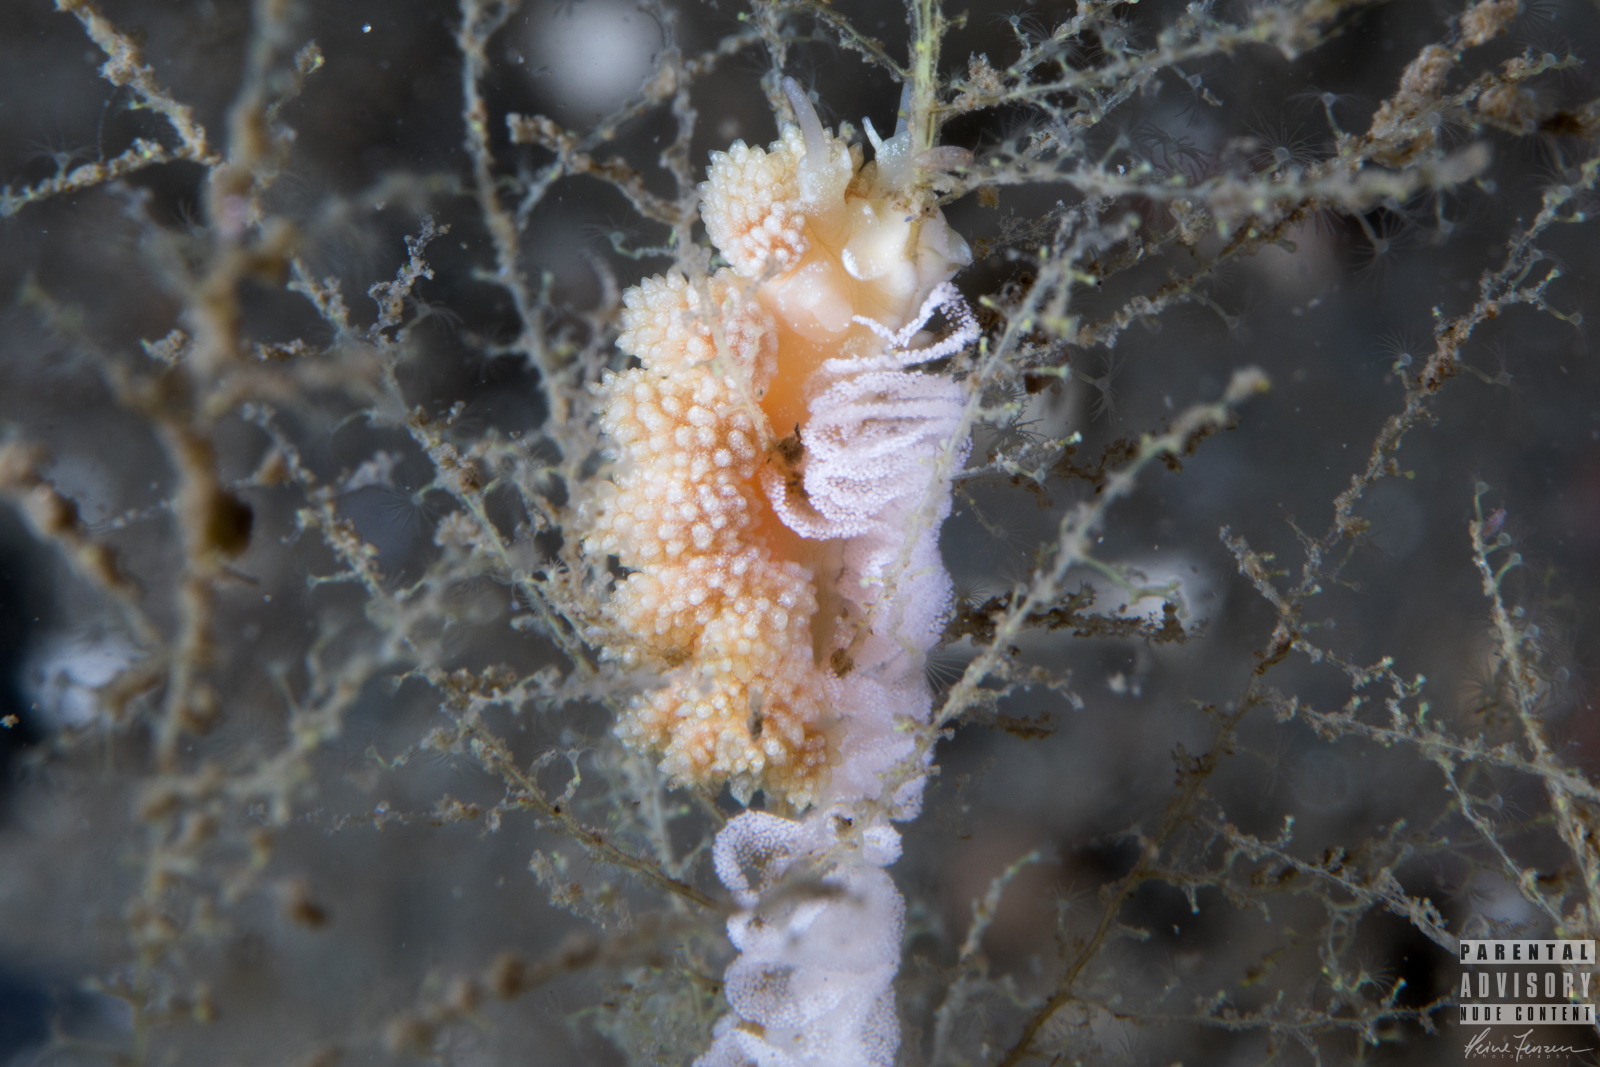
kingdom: Animalia
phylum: Mollusca
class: Gastropoda
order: Nudibranchia
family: Dotidae
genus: Doto
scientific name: Doto fragilis
